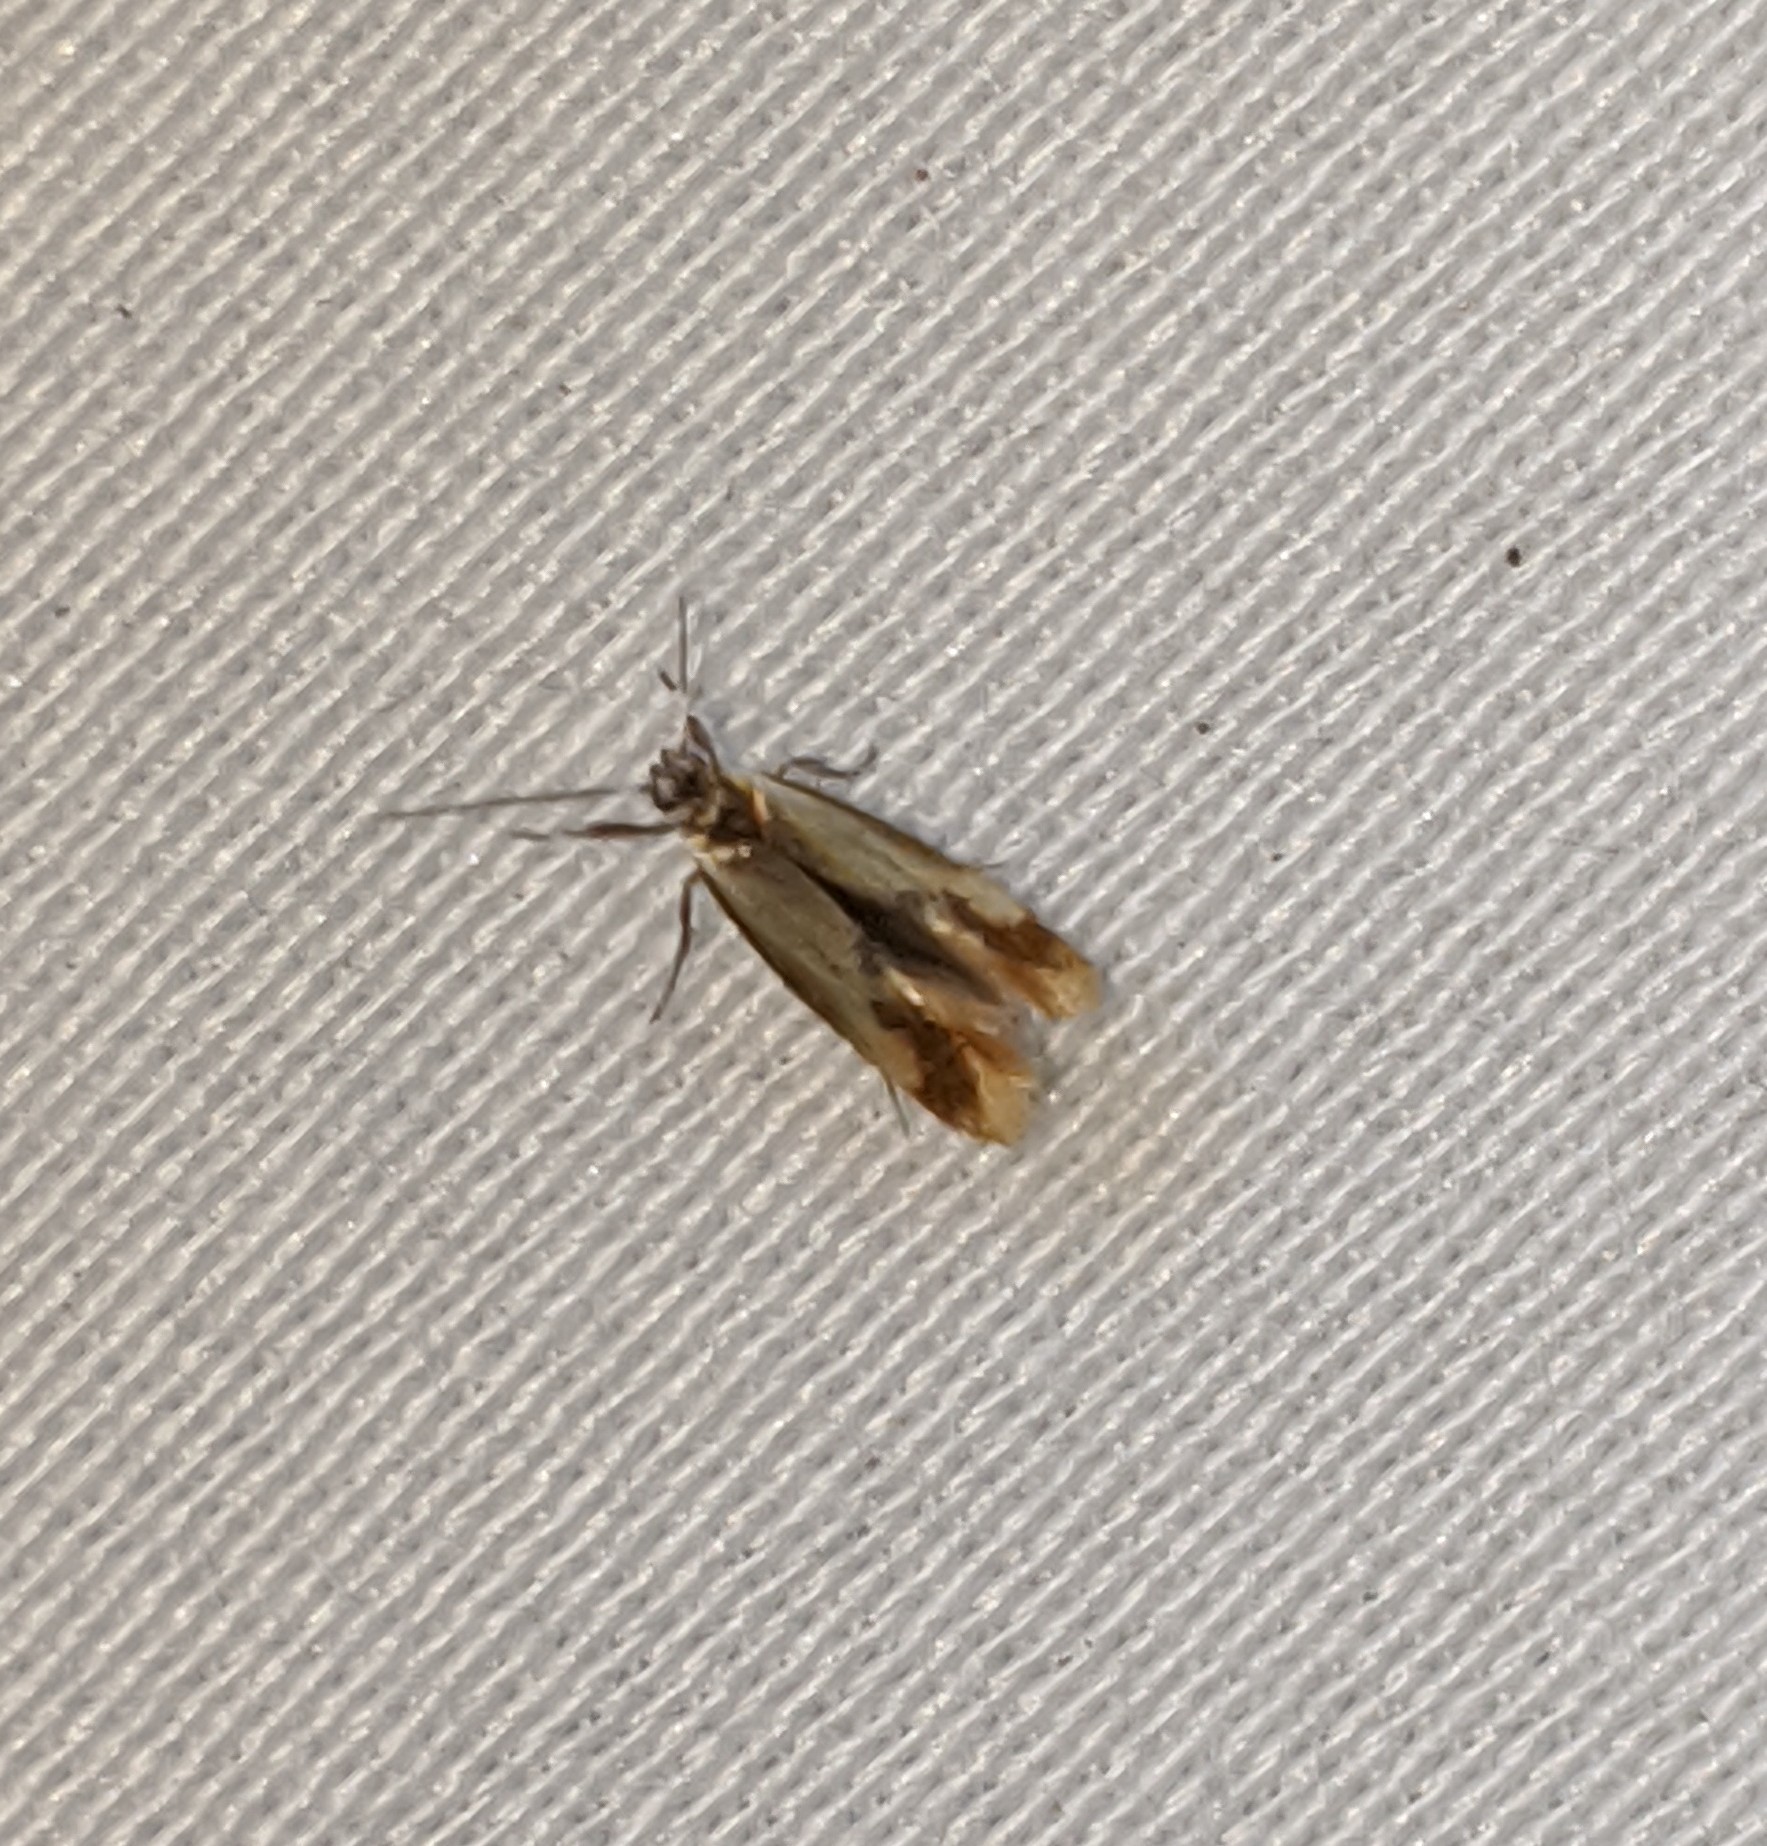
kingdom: Animalia
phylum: Arthropoda
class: Insecta
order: Lepidoptera
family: Oecophoridae
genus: Batia
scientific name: Batia lunaris
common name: Moth
